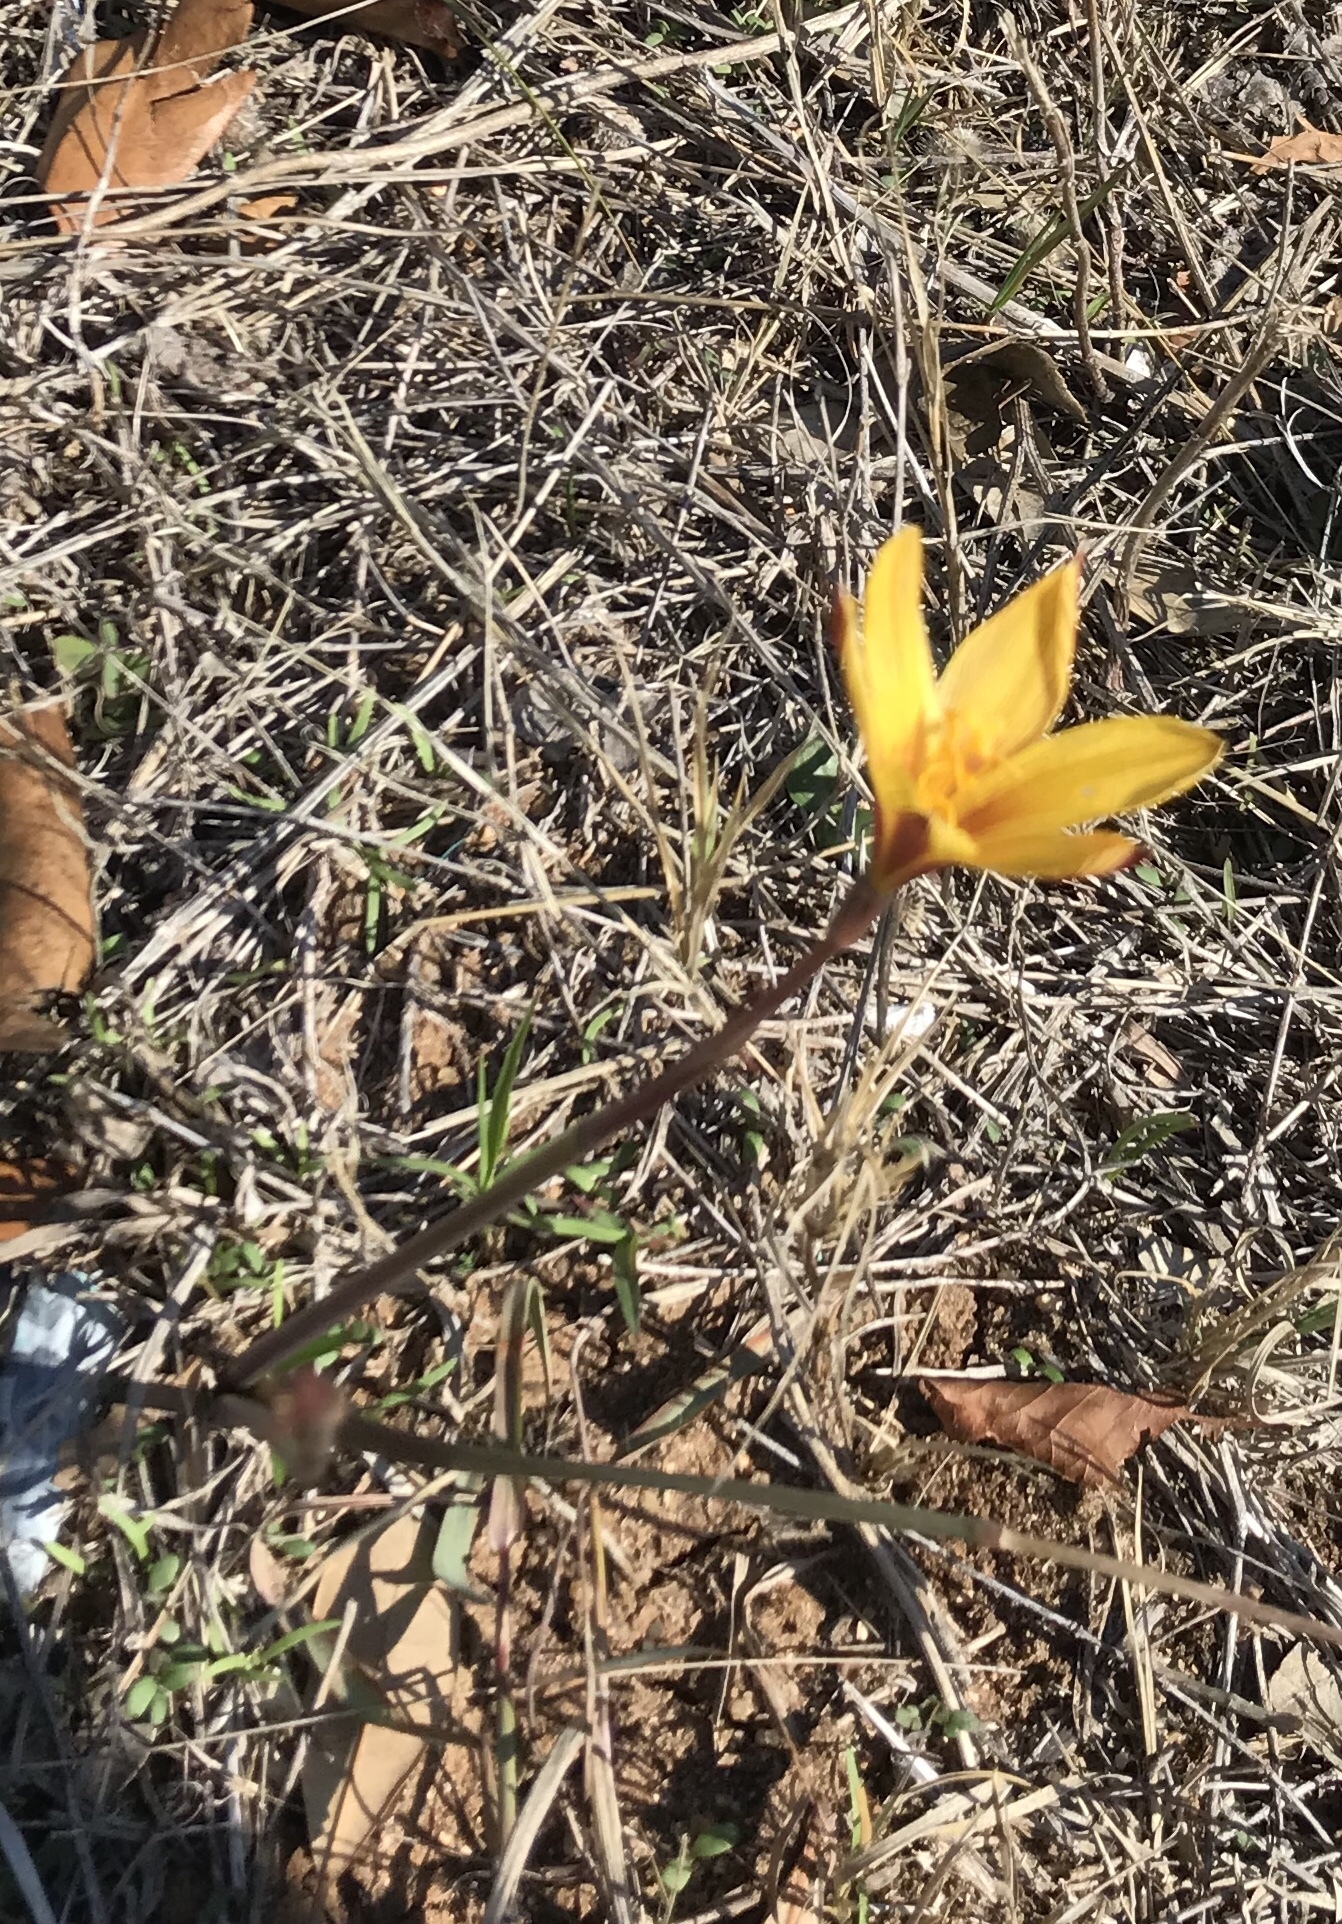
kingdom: Plantae
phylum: Tracheophyta
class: Liliopsida
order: Asparagales
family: Amaryllidaceae
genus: Zephyranthes
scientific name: Zephyranthes tubispatha
